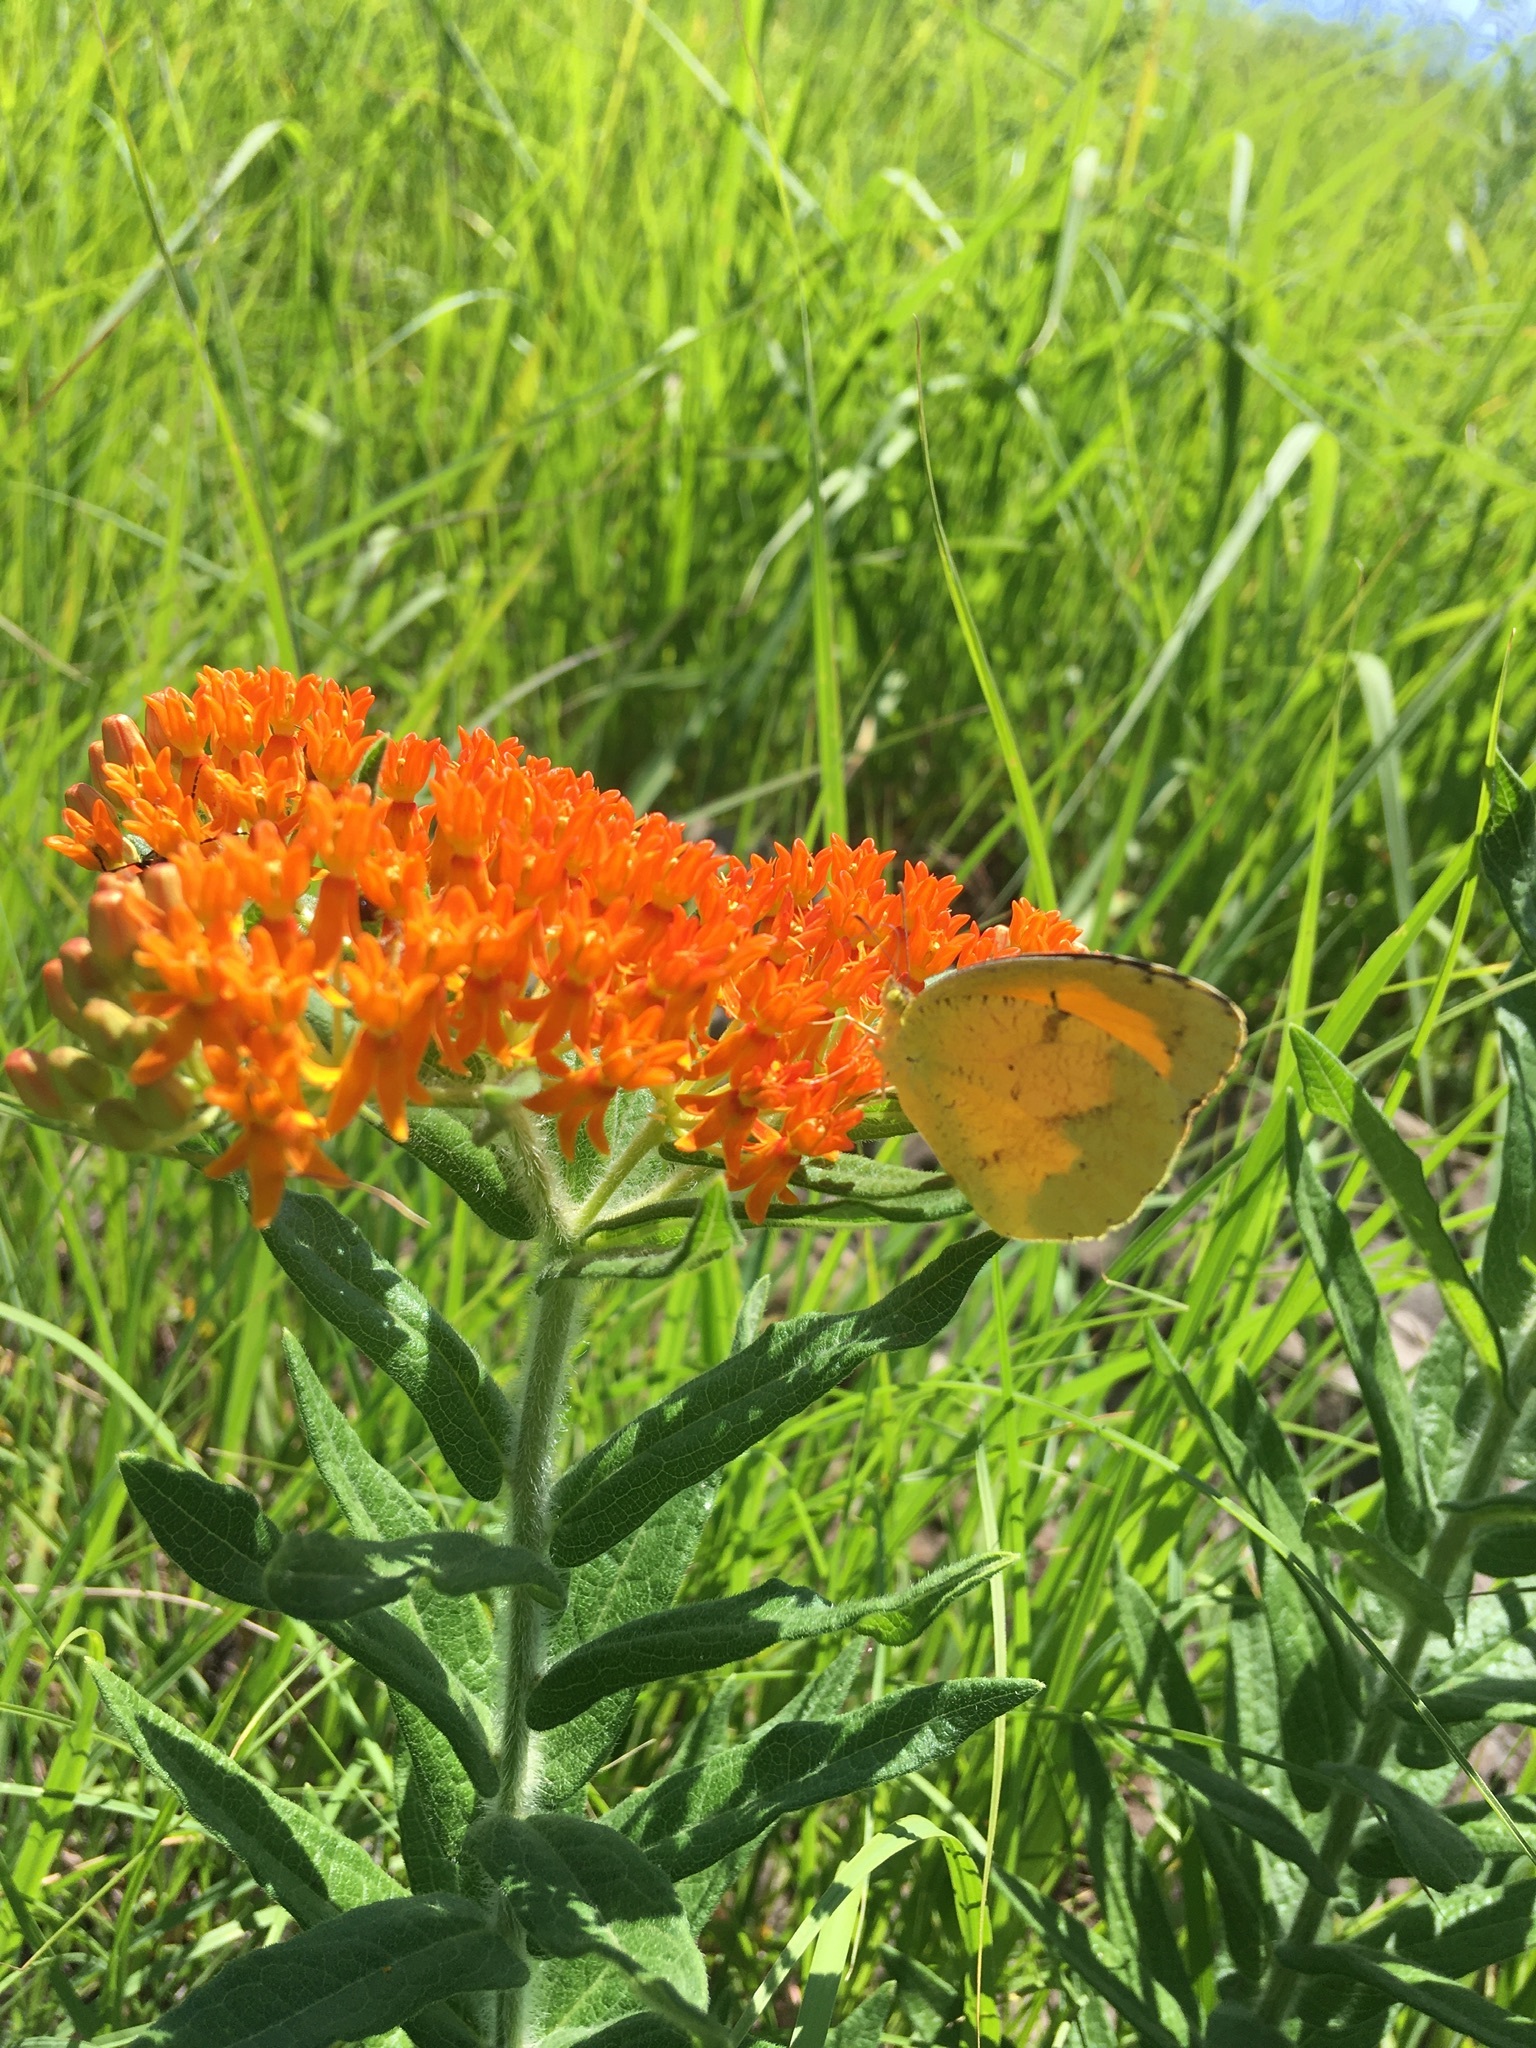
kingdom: Animalia
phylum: Arthropoda
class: Insecta
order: Lepidoptera
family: Pieridae
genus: Abaeis
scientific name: Abaeis nicippe
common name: Sleepy orange
